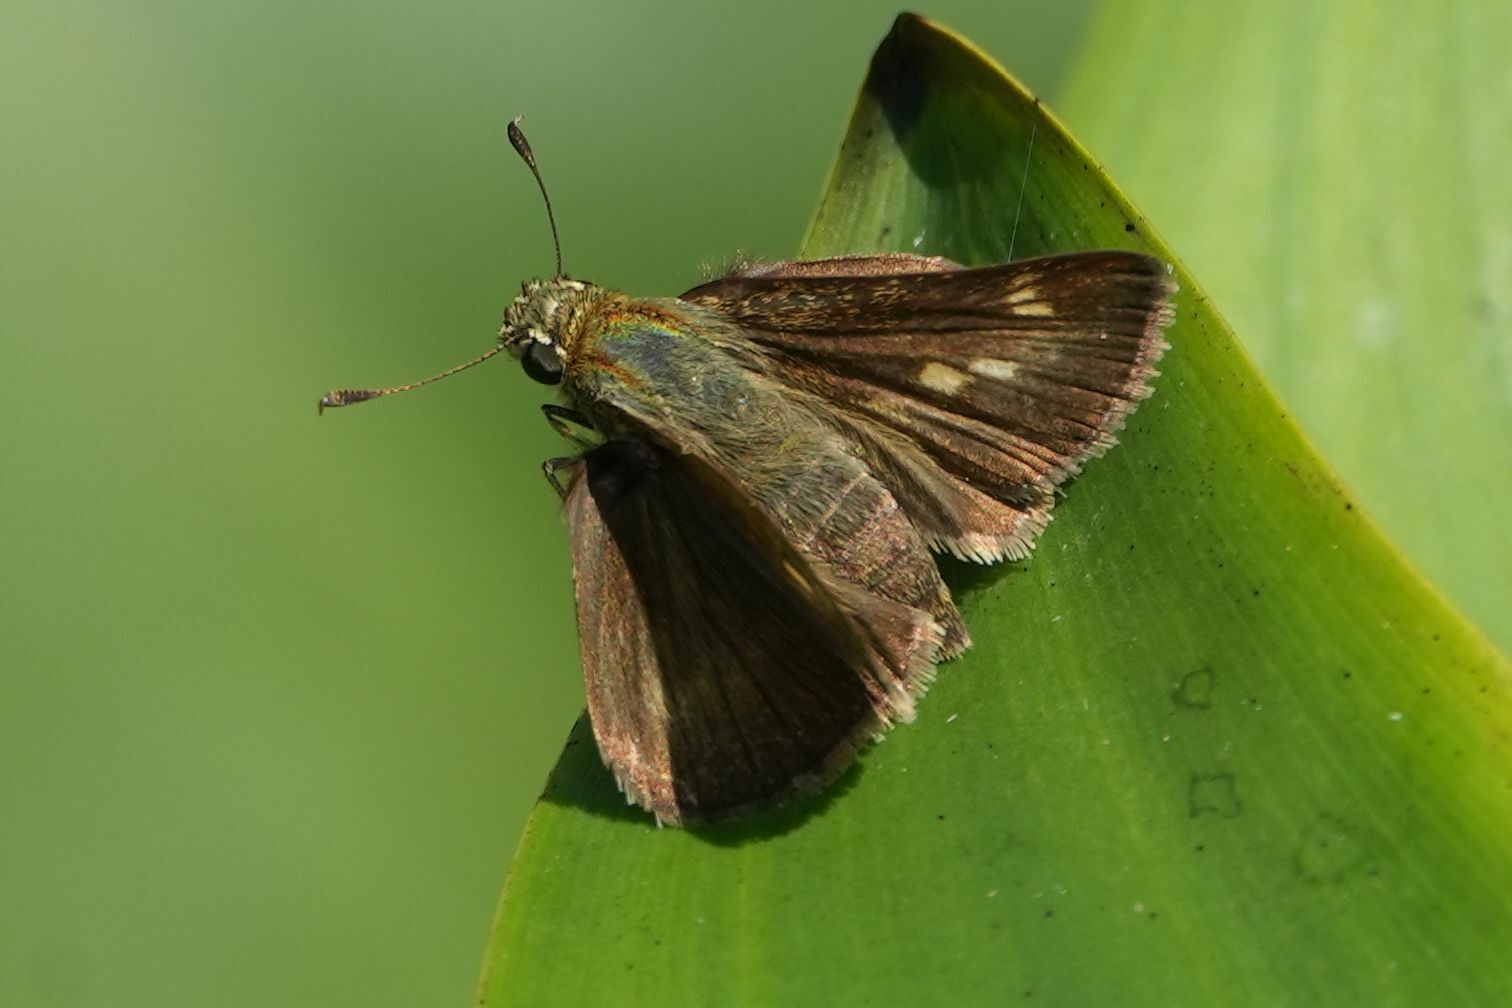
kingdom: Animalia
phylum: Arthropoda
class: Insecta
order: Lepidoptera
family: Hesperiidae
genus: Polites
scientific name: Polites egeremet
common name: Northern broken-dash
